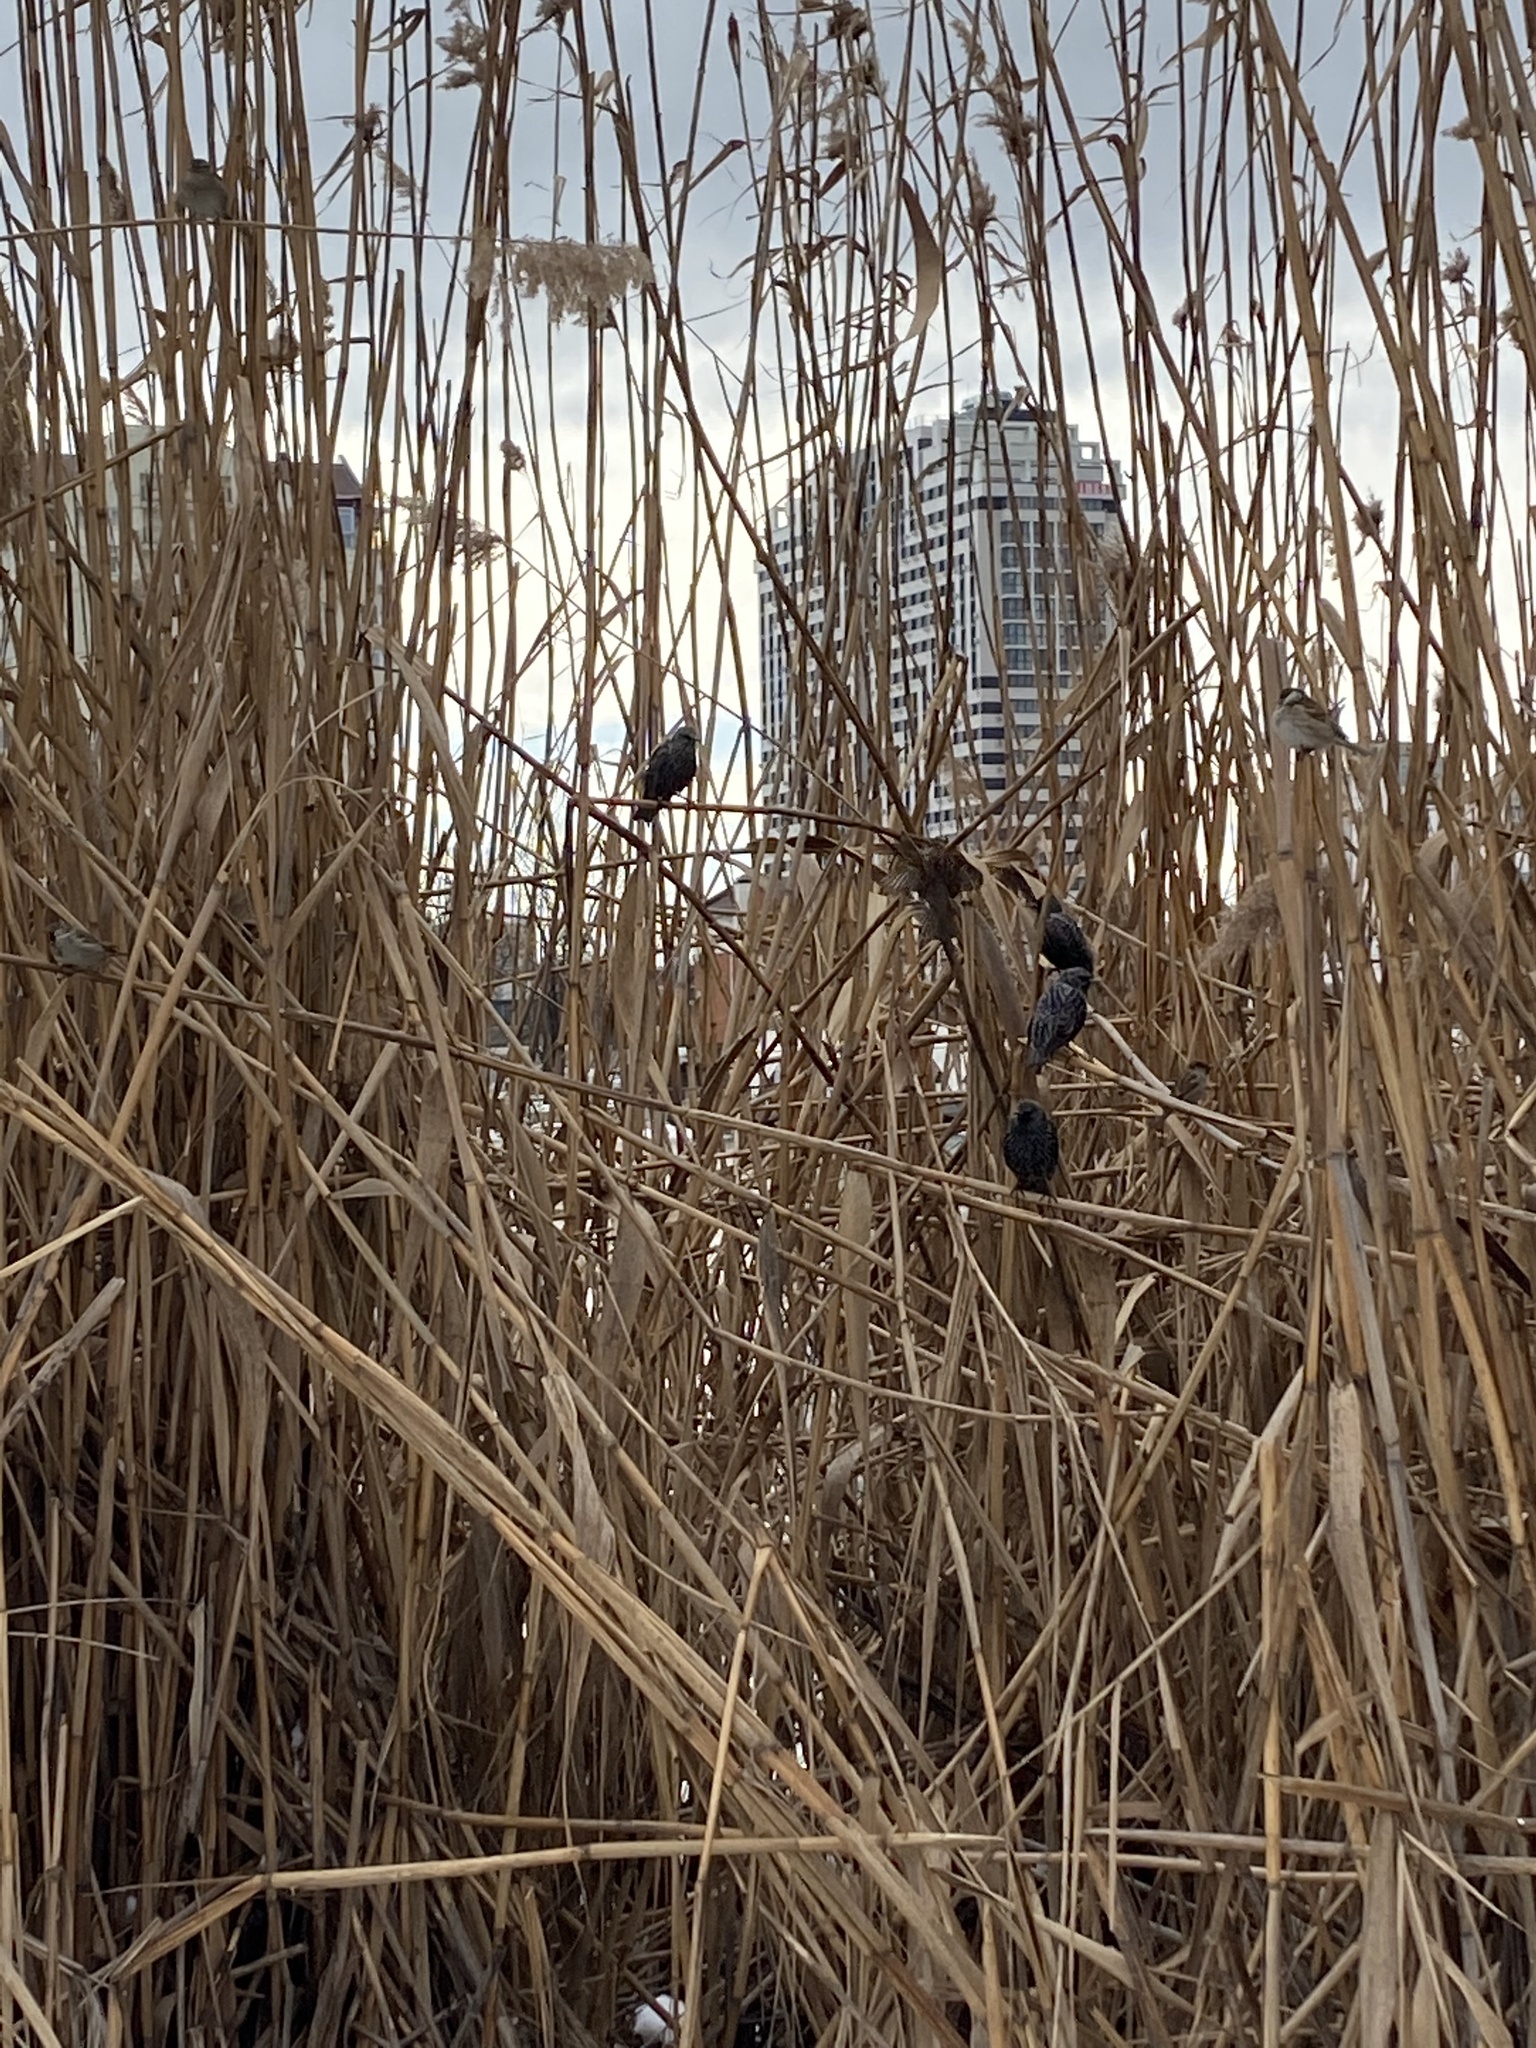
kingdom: Animalia
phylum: Chordata
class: Aves
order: Passeriformes
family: Sturnidae
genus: Sturnus
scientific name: Sturnus vulgaris
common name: Common starling
